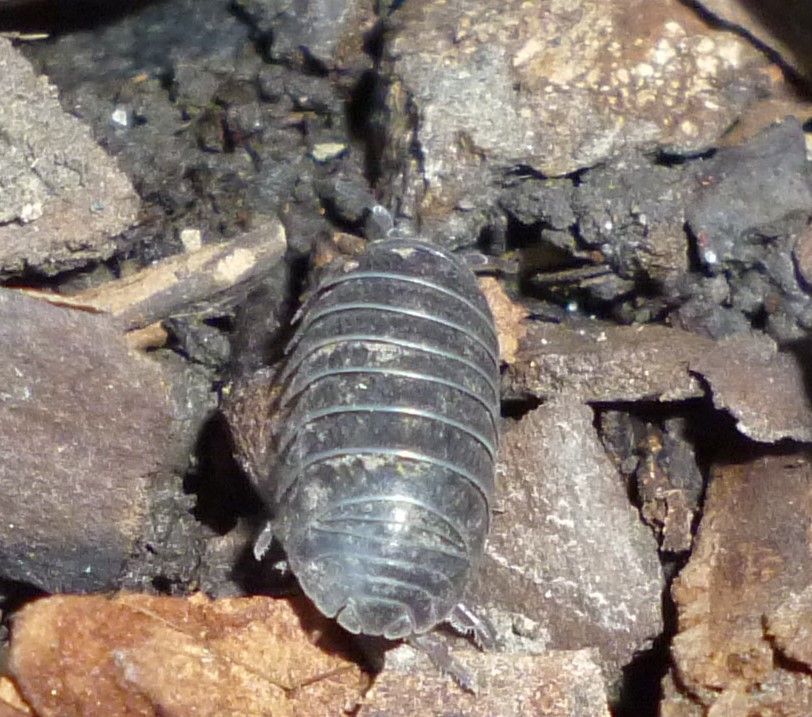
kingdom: Animalia
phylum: Arthropoda
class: Malacostraca
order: Isopoda
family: Armadillidiidae
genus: Armadillidium
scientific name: Armadillidium vulgare
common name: Common pill woodlouse
